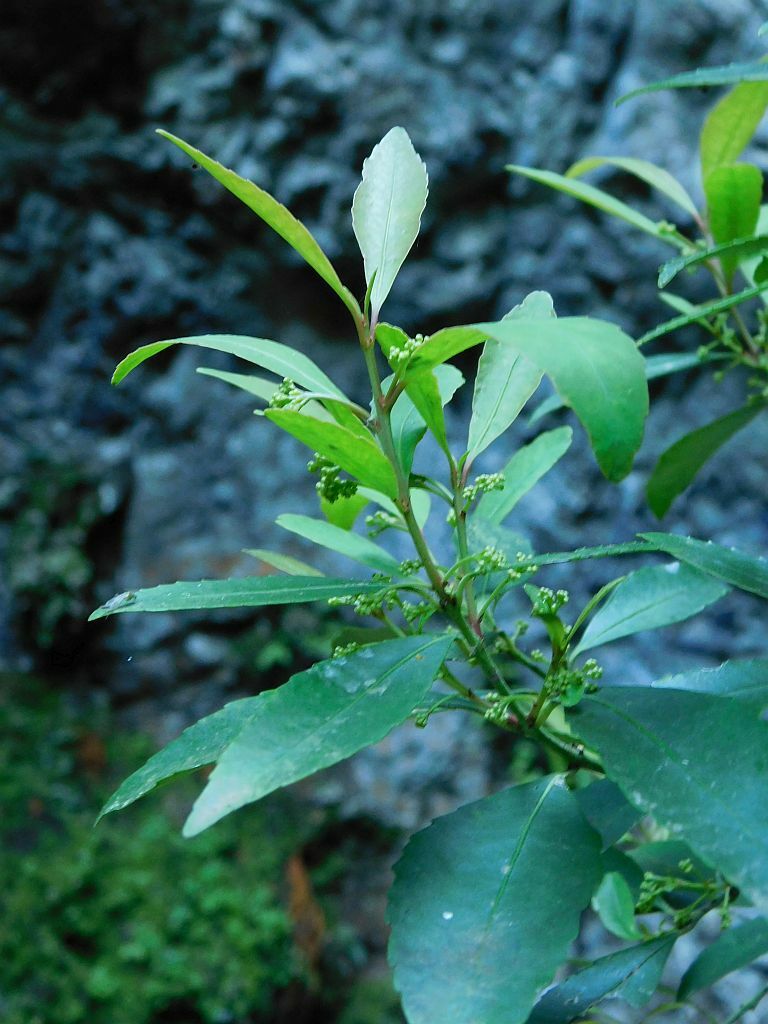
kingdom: Plantae
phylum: Tracheophyta
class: Magnoliopsida
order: Celastrales
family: Celastraceae
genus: Elaeodendron
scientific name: Elaeodendron schinoides
